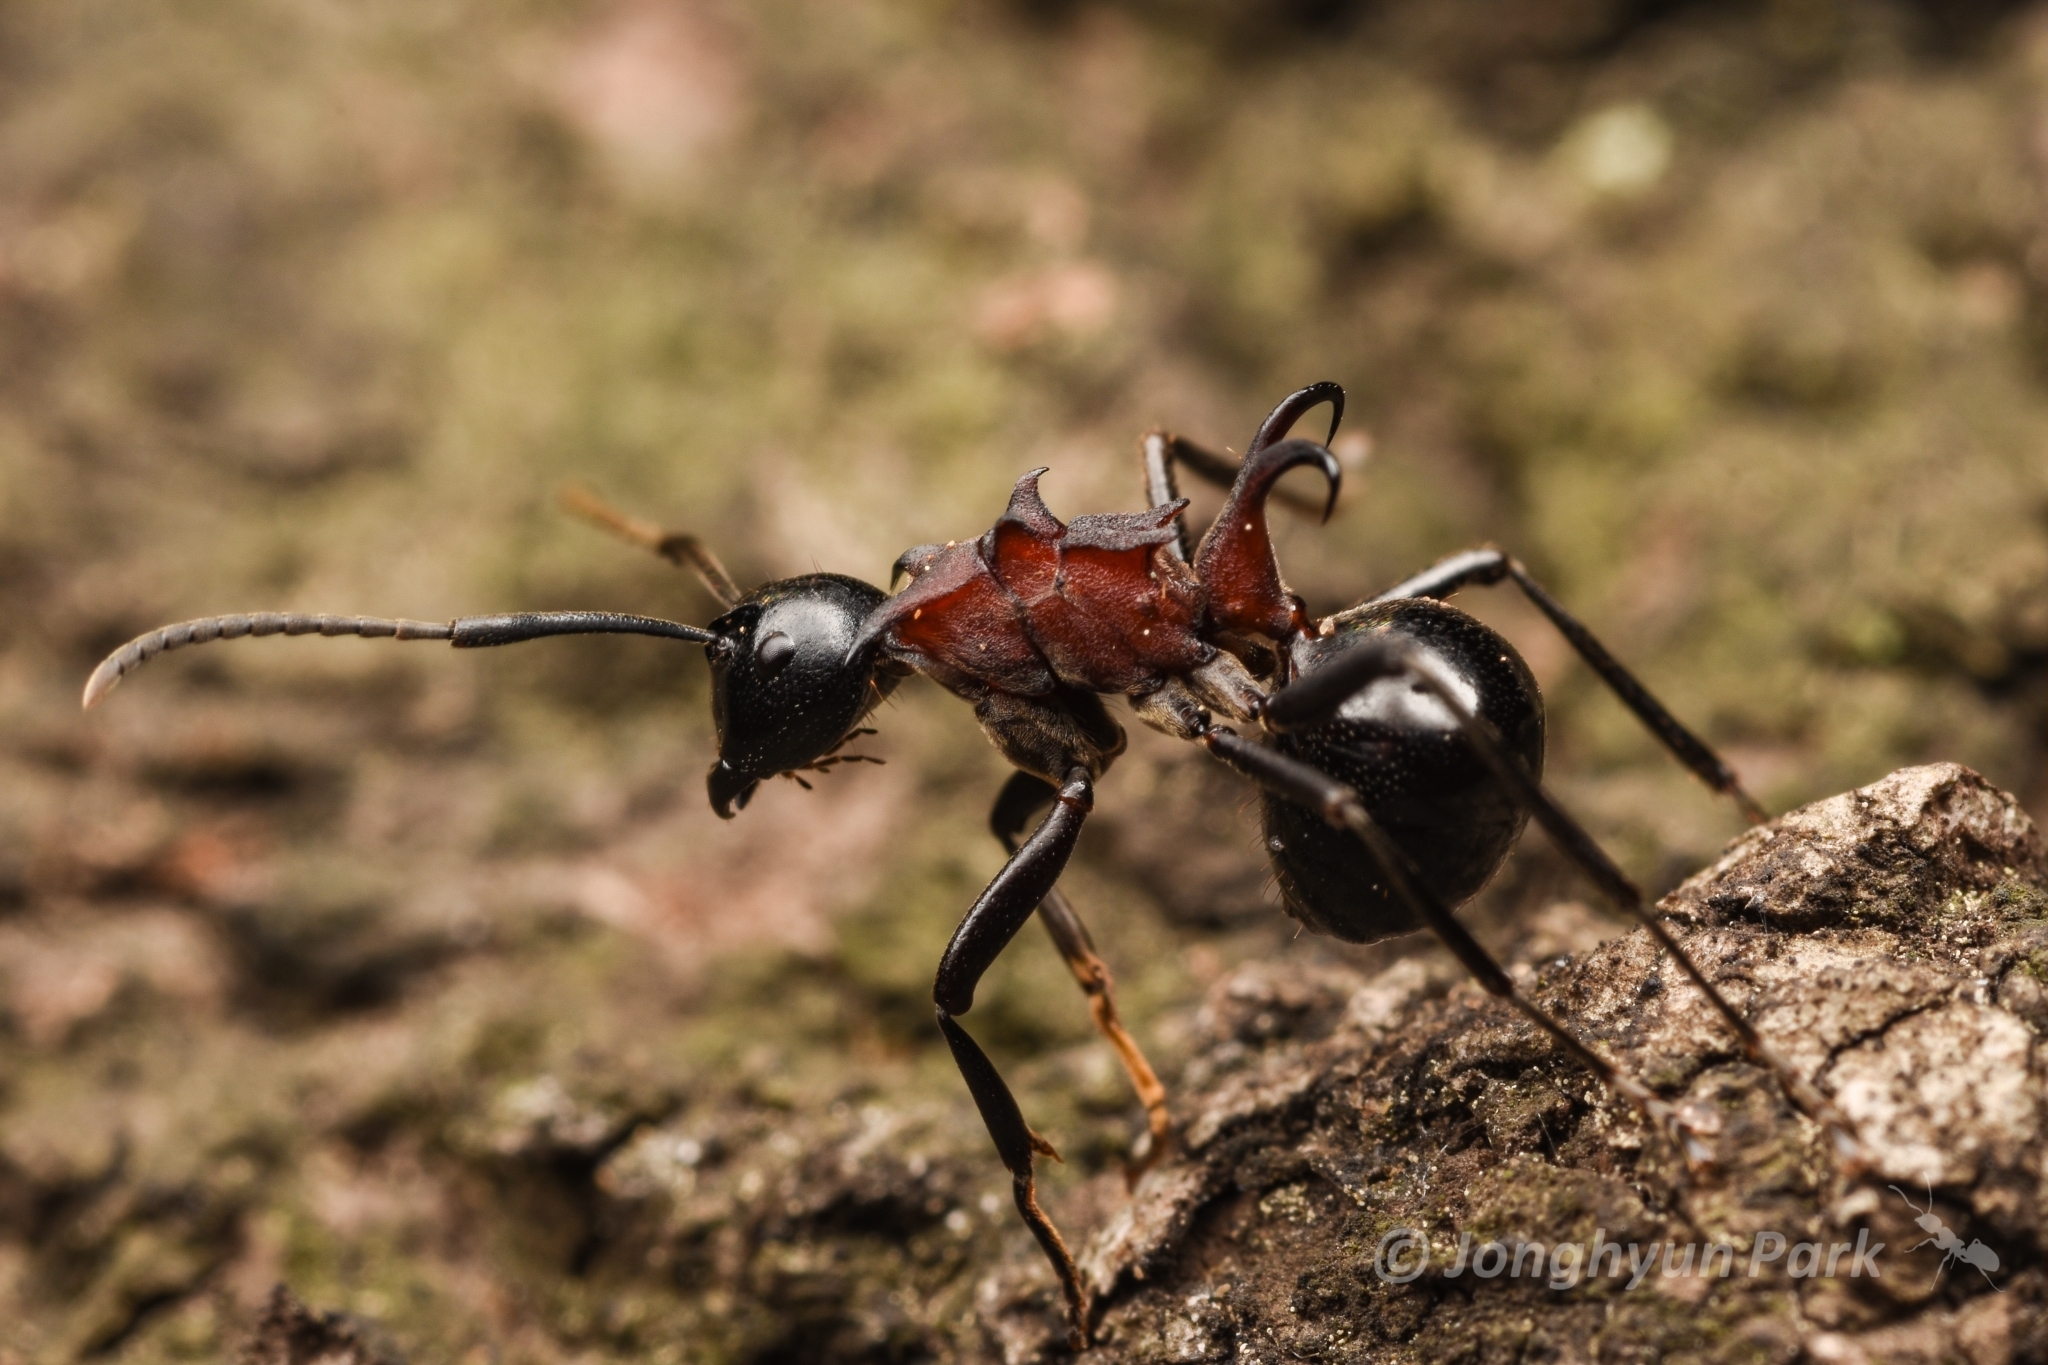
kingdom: Animalia
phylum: Arthropoda
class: Insecta
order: Hymenoptera
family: Formicidae
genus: Polyrhachis
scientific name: Polyrhachis lamellidens
